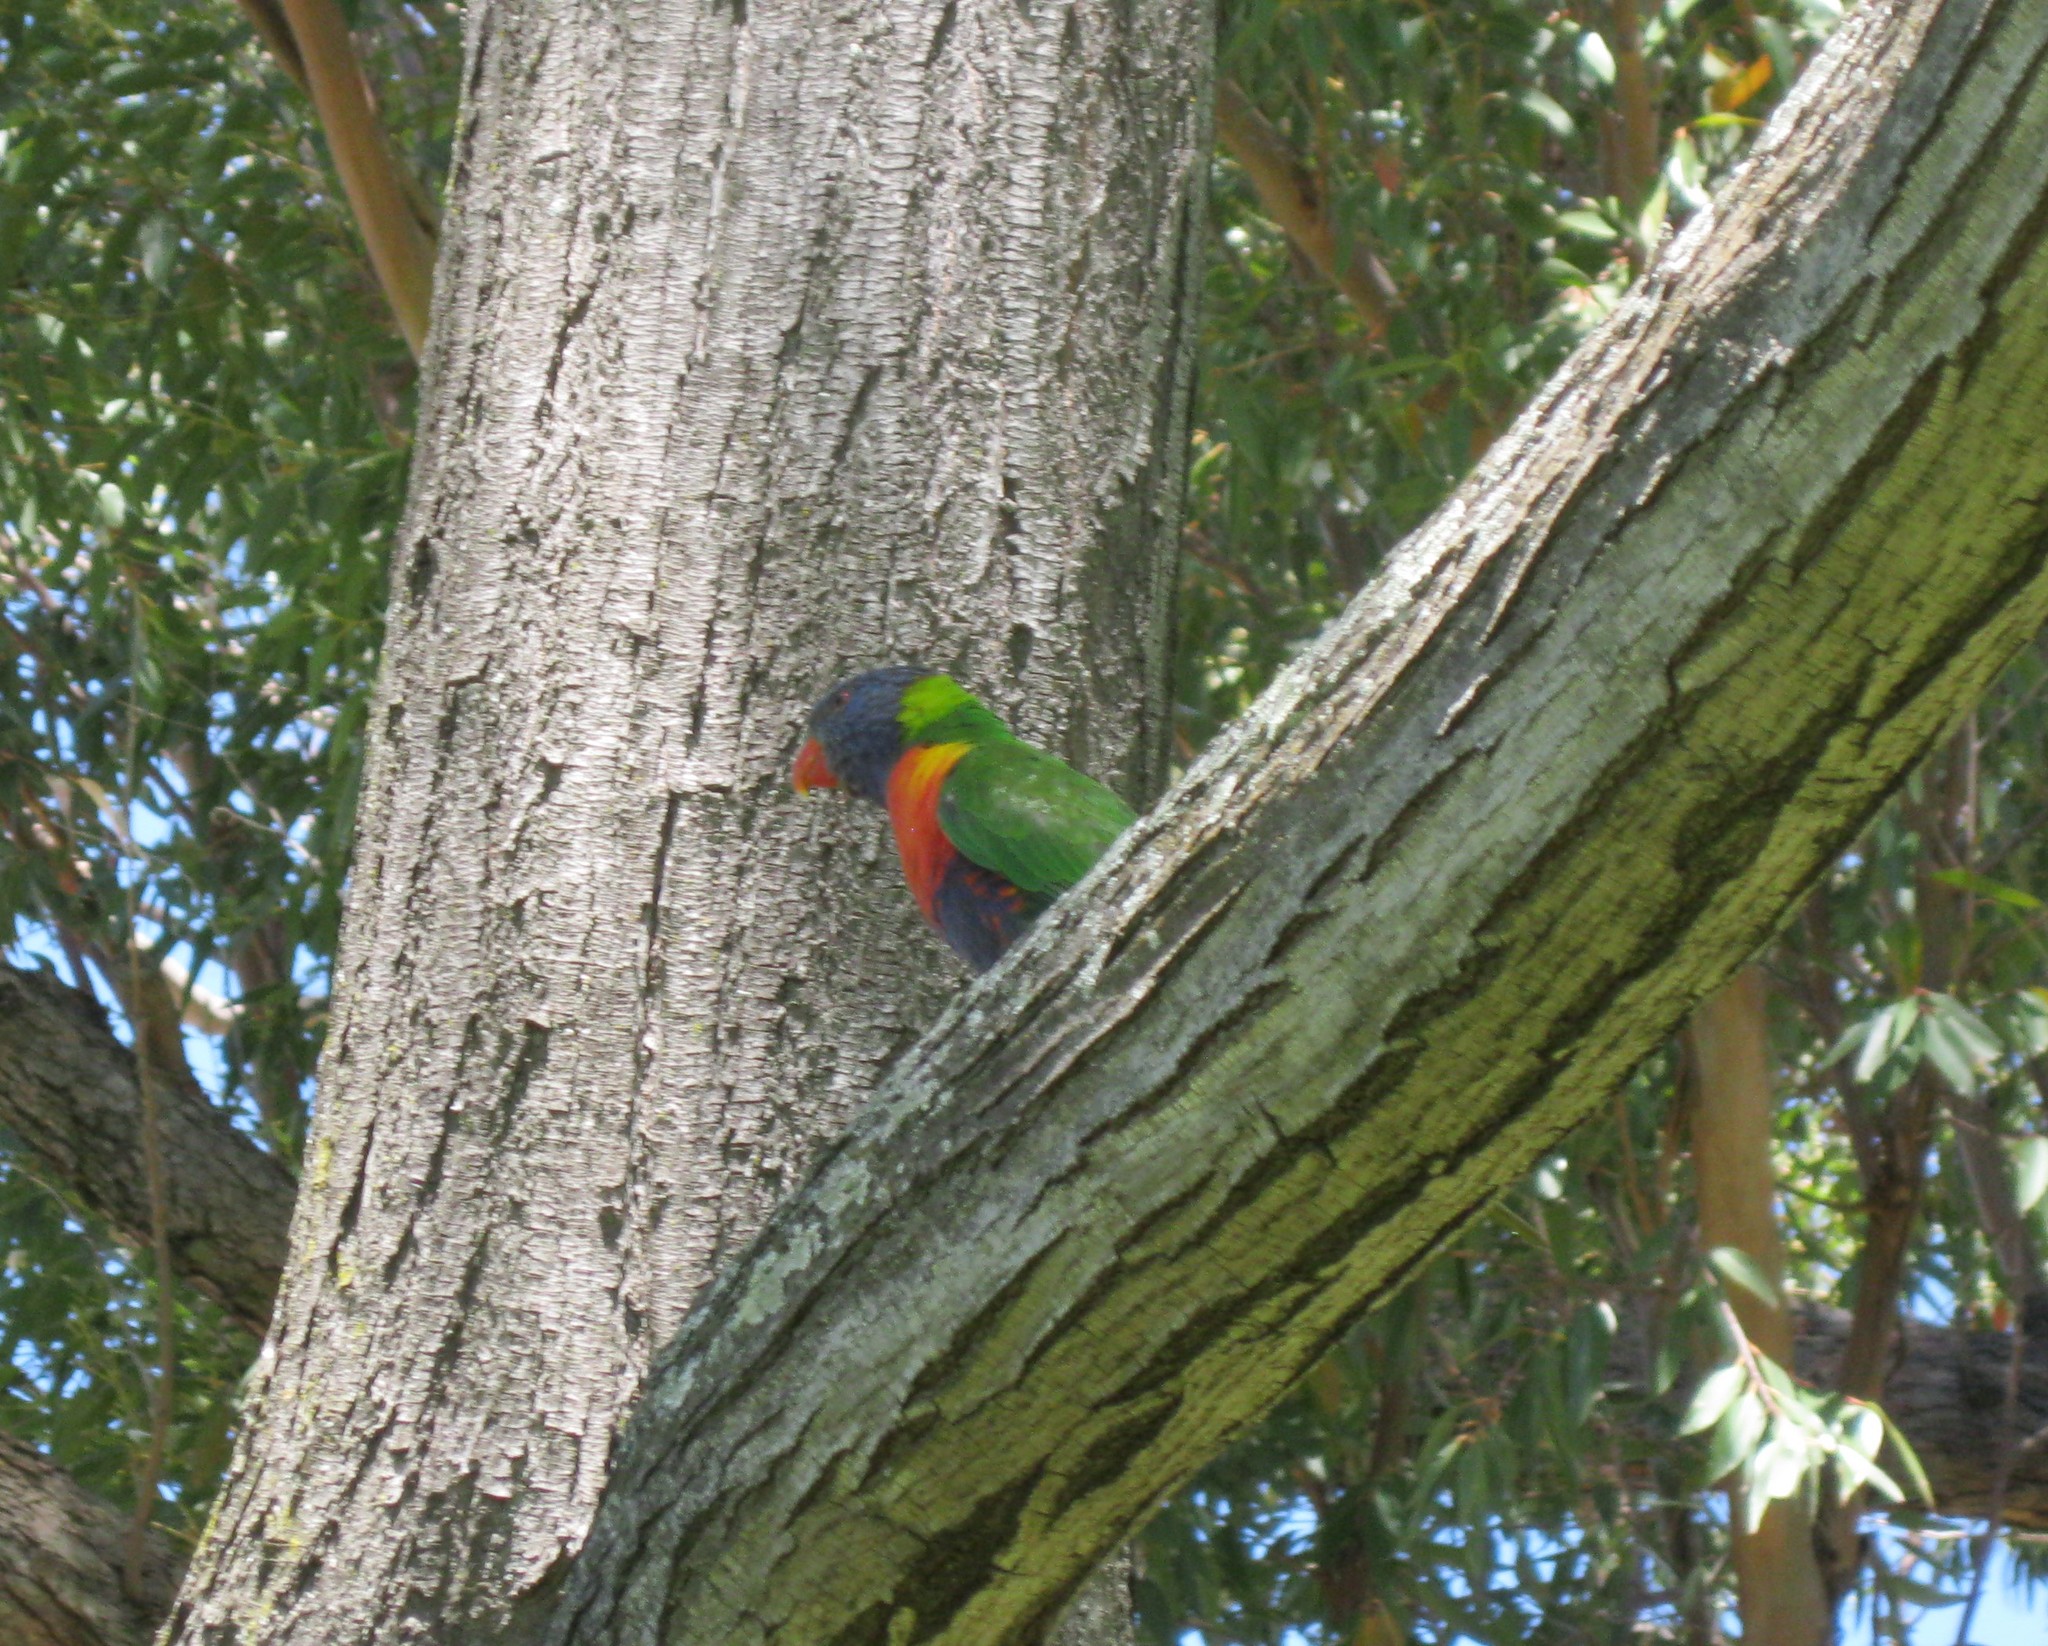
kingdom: Animalia
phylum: Chordata
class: Aves
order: Psittaciformes
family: Psittacidae
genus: Trichoglossus
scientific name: Trichoglossus haematodus
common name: Coconut lorikeet
